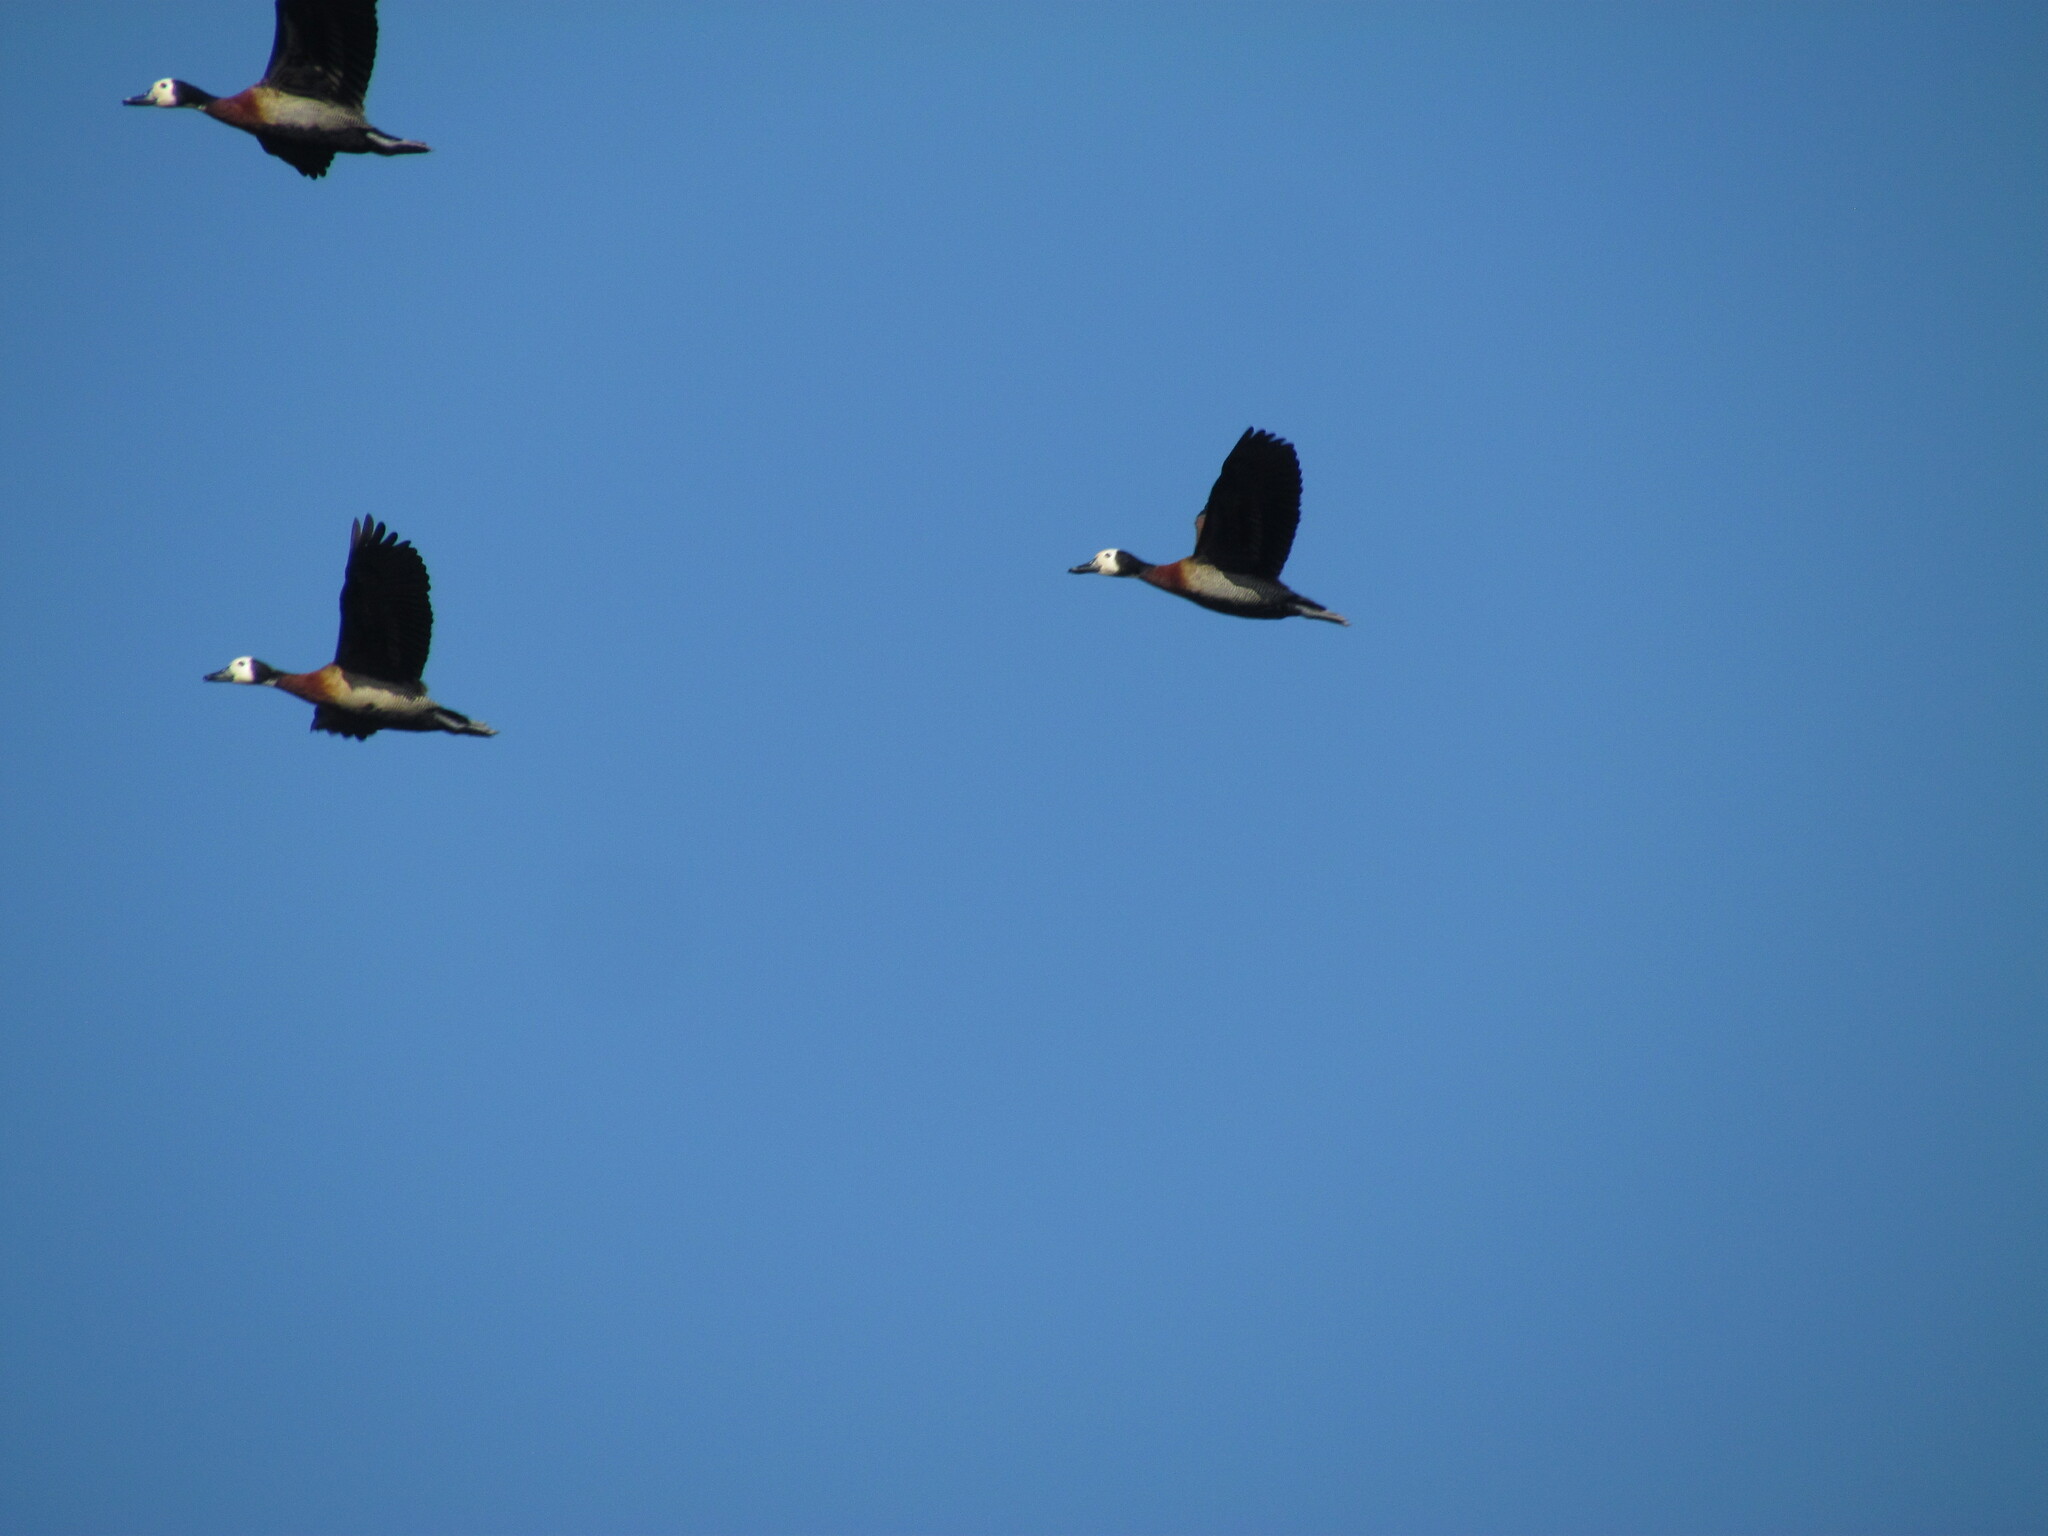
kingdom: Animalia
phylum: Chordata
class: Aves
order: Anseriformes
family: Anatidae
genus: Dendrocygna
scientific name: Dendrocygna viduata
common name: White-faced whistling duck
